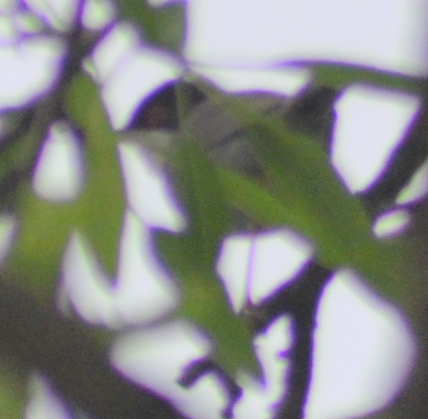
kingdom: Animalia
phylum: Chordata
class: Aves
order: Passeriformes
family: Sylviidae
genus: Curruca
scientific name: Curruca melanocephala
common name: Sardinian warbler
